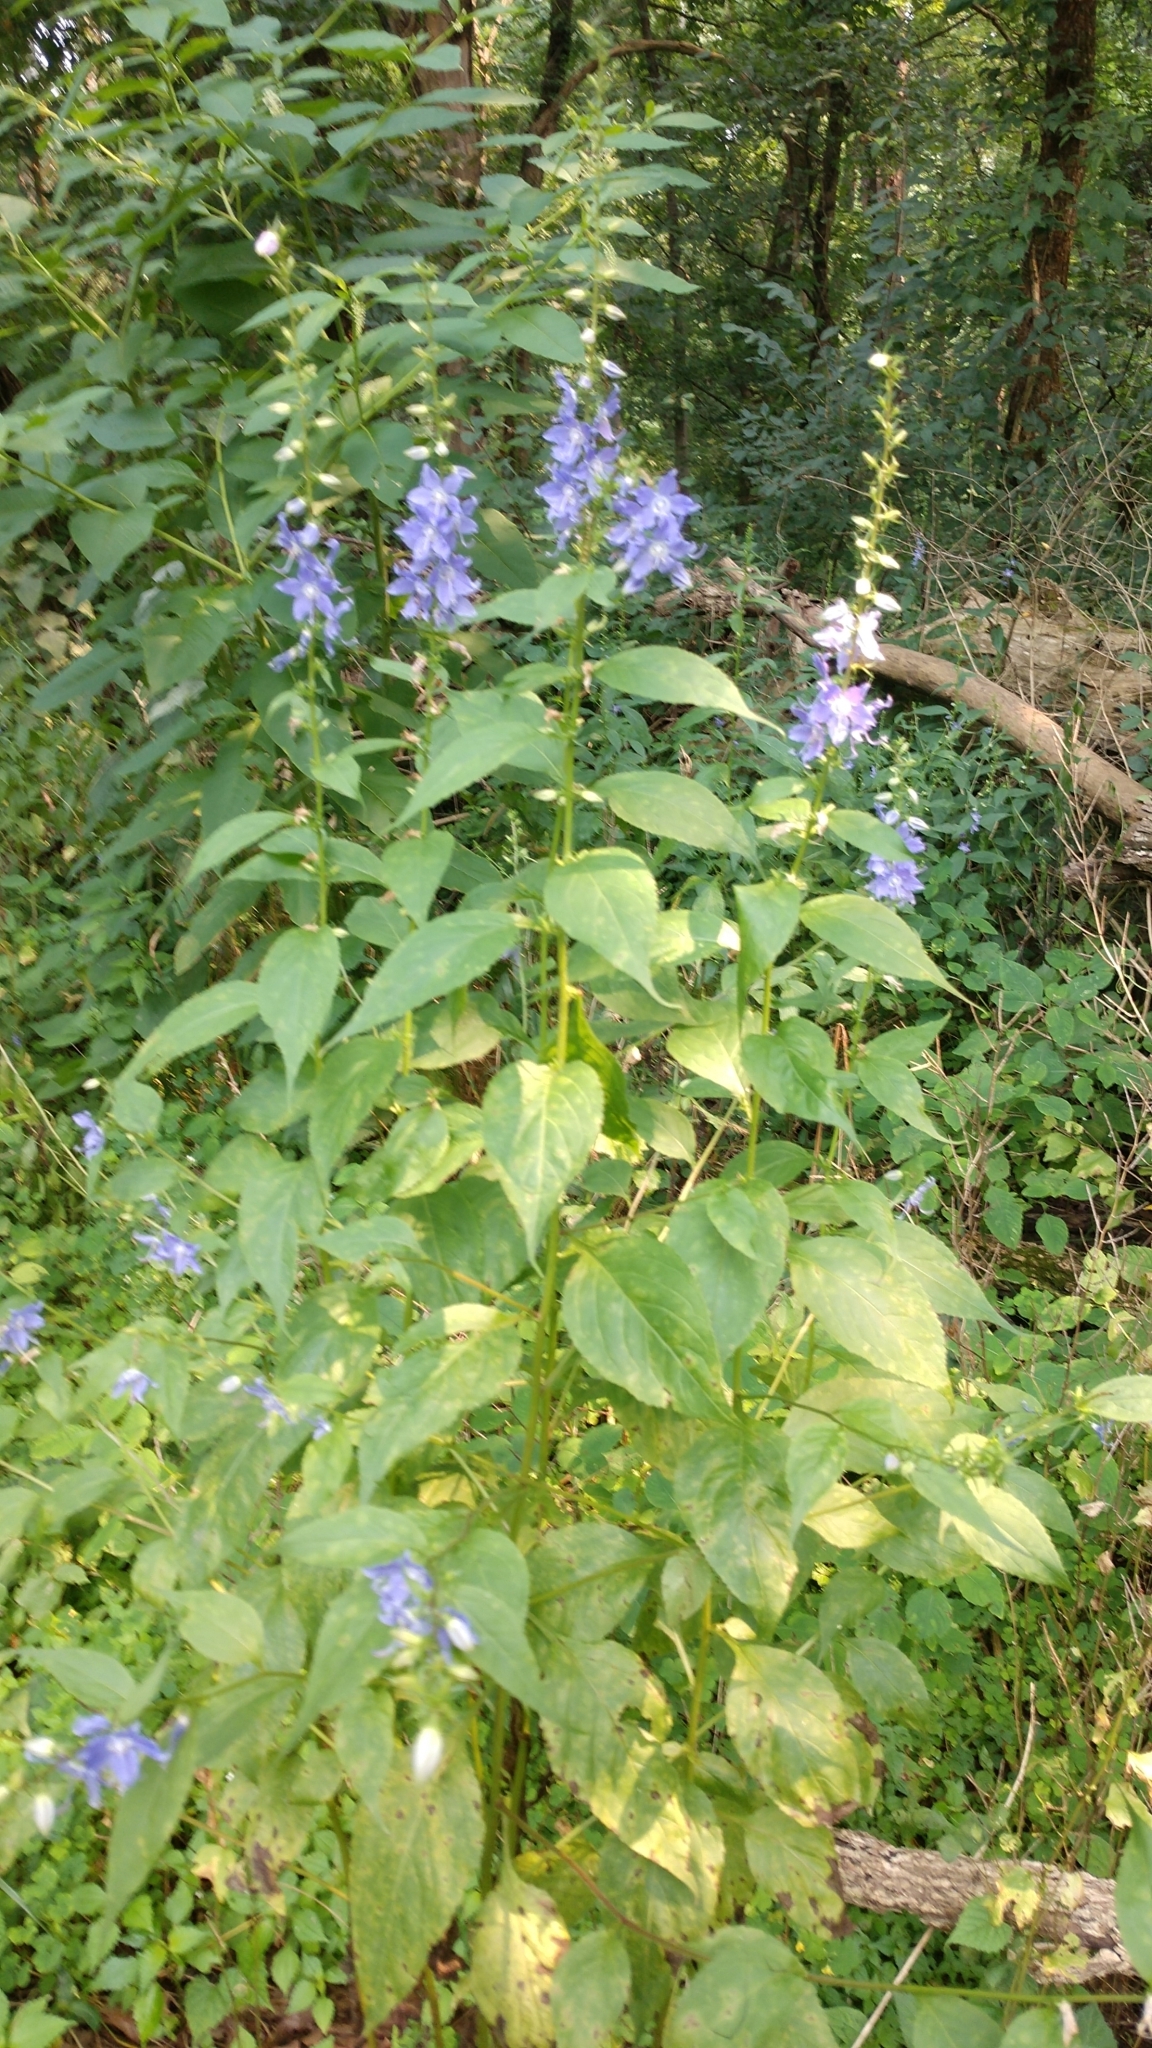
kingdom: Plantae
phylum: Tracheophyta
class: Magnoliopsida
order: Asterales
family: Campanulaceae
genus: Campanulastrum
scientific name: Campanulastrum americanum
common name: American bellflower
